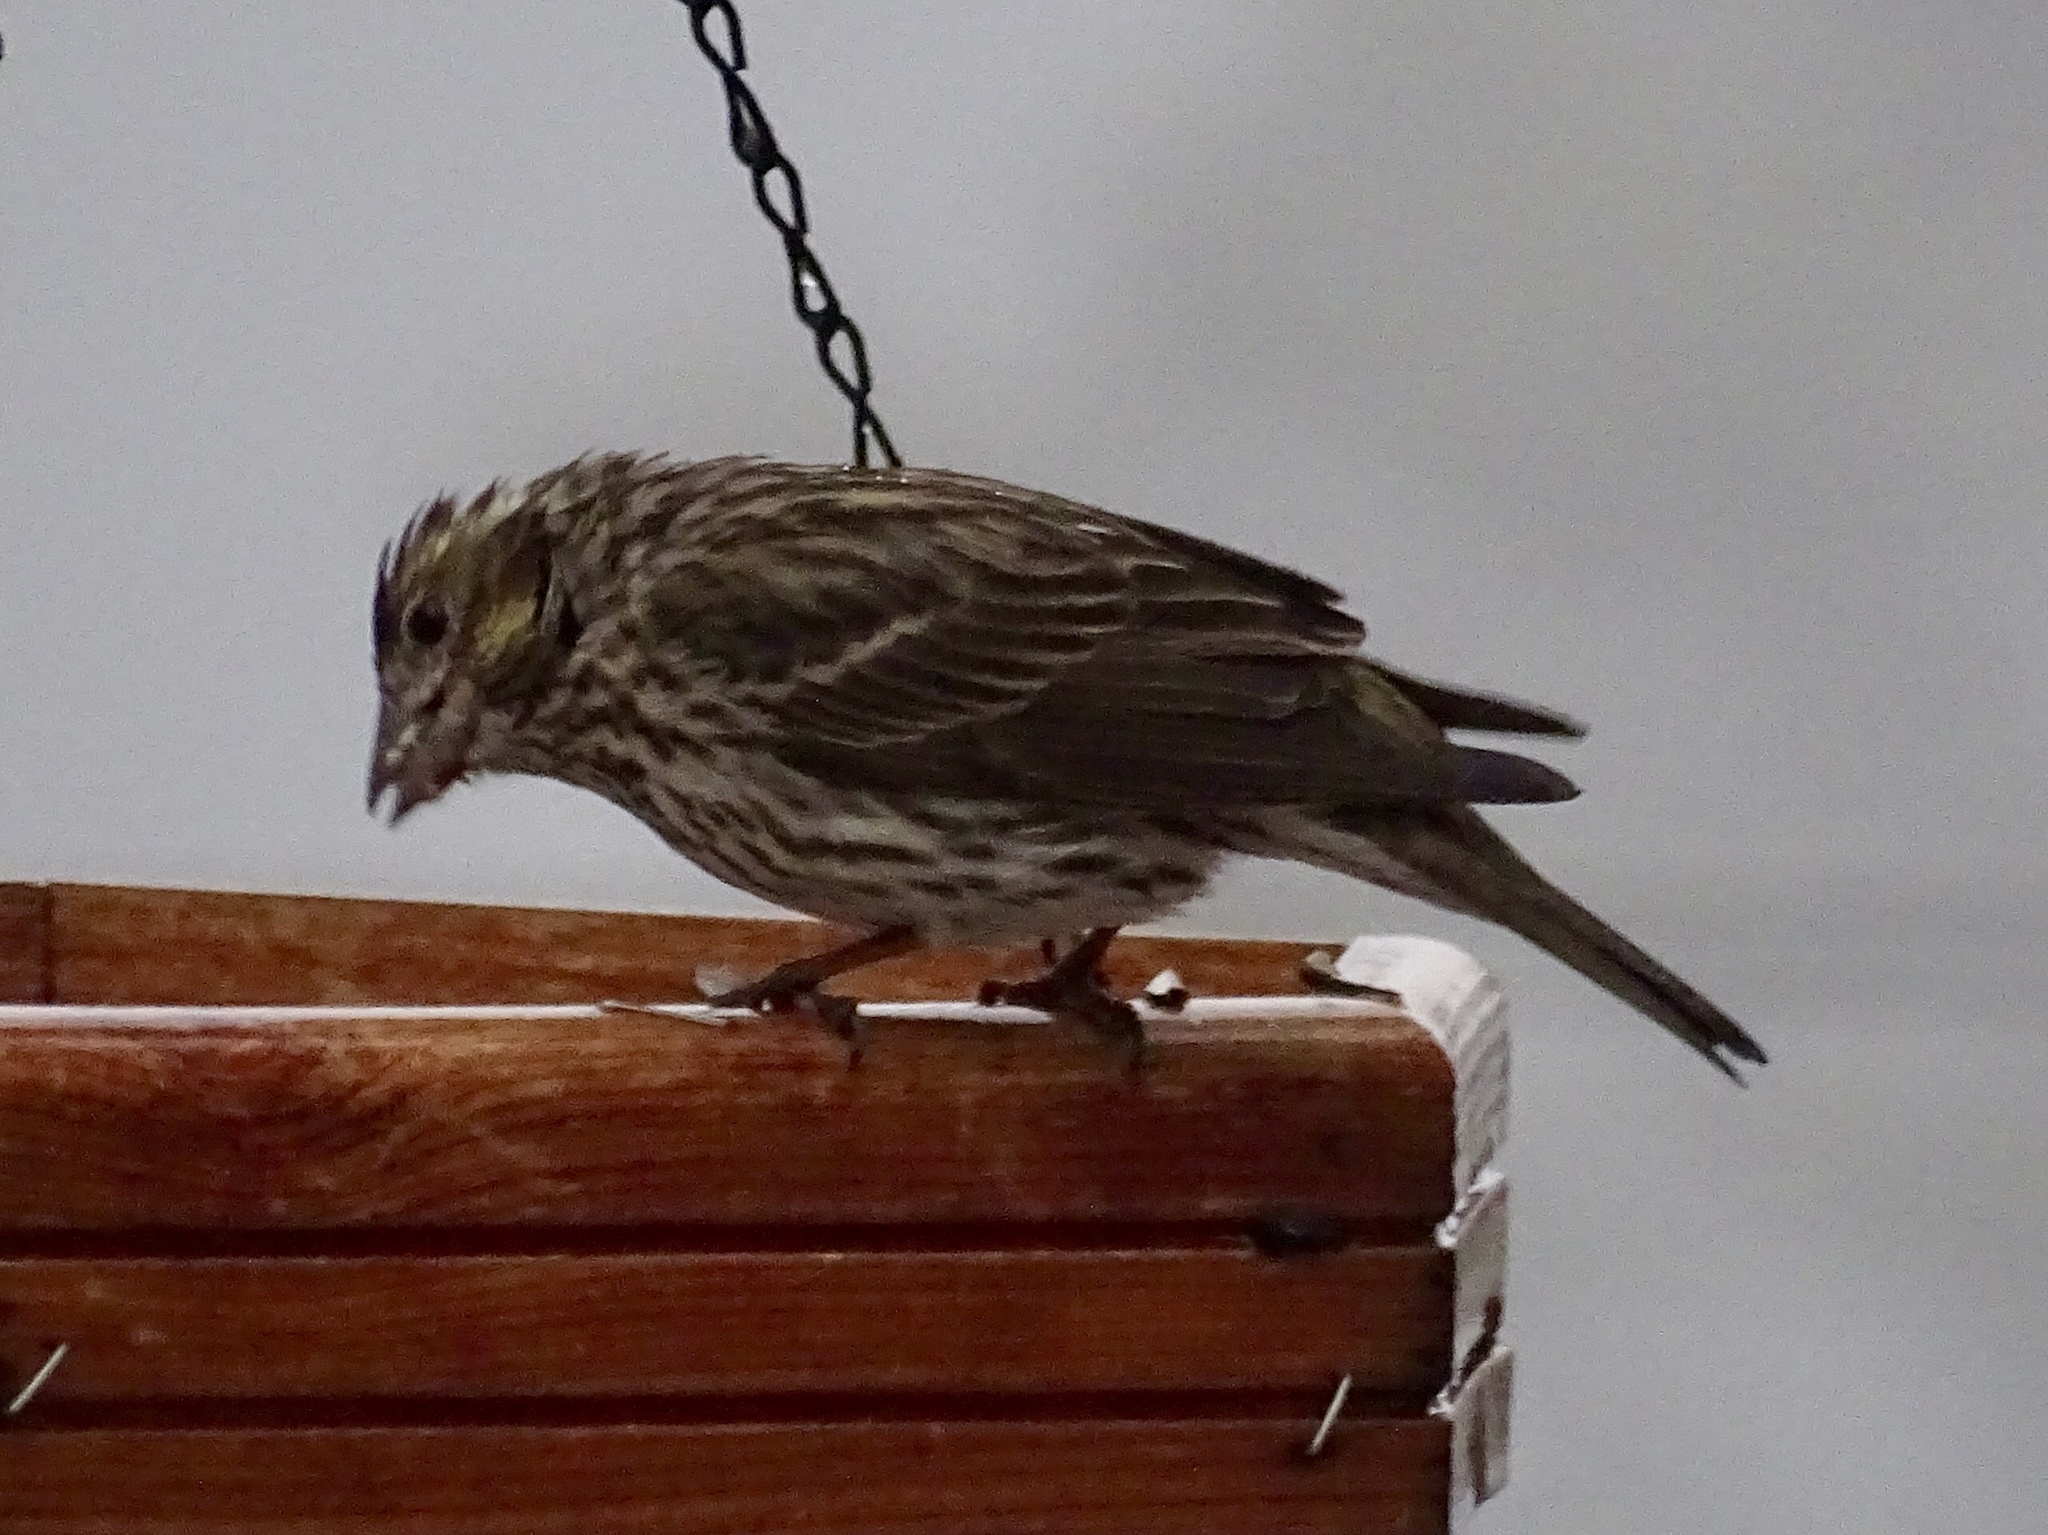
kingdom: Animalia
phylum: Chordata
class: Aves
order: Passeriformes
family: Fringillidae
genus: Haemorhous
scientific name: Haemorhous cassinii
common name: Cassin's finch
